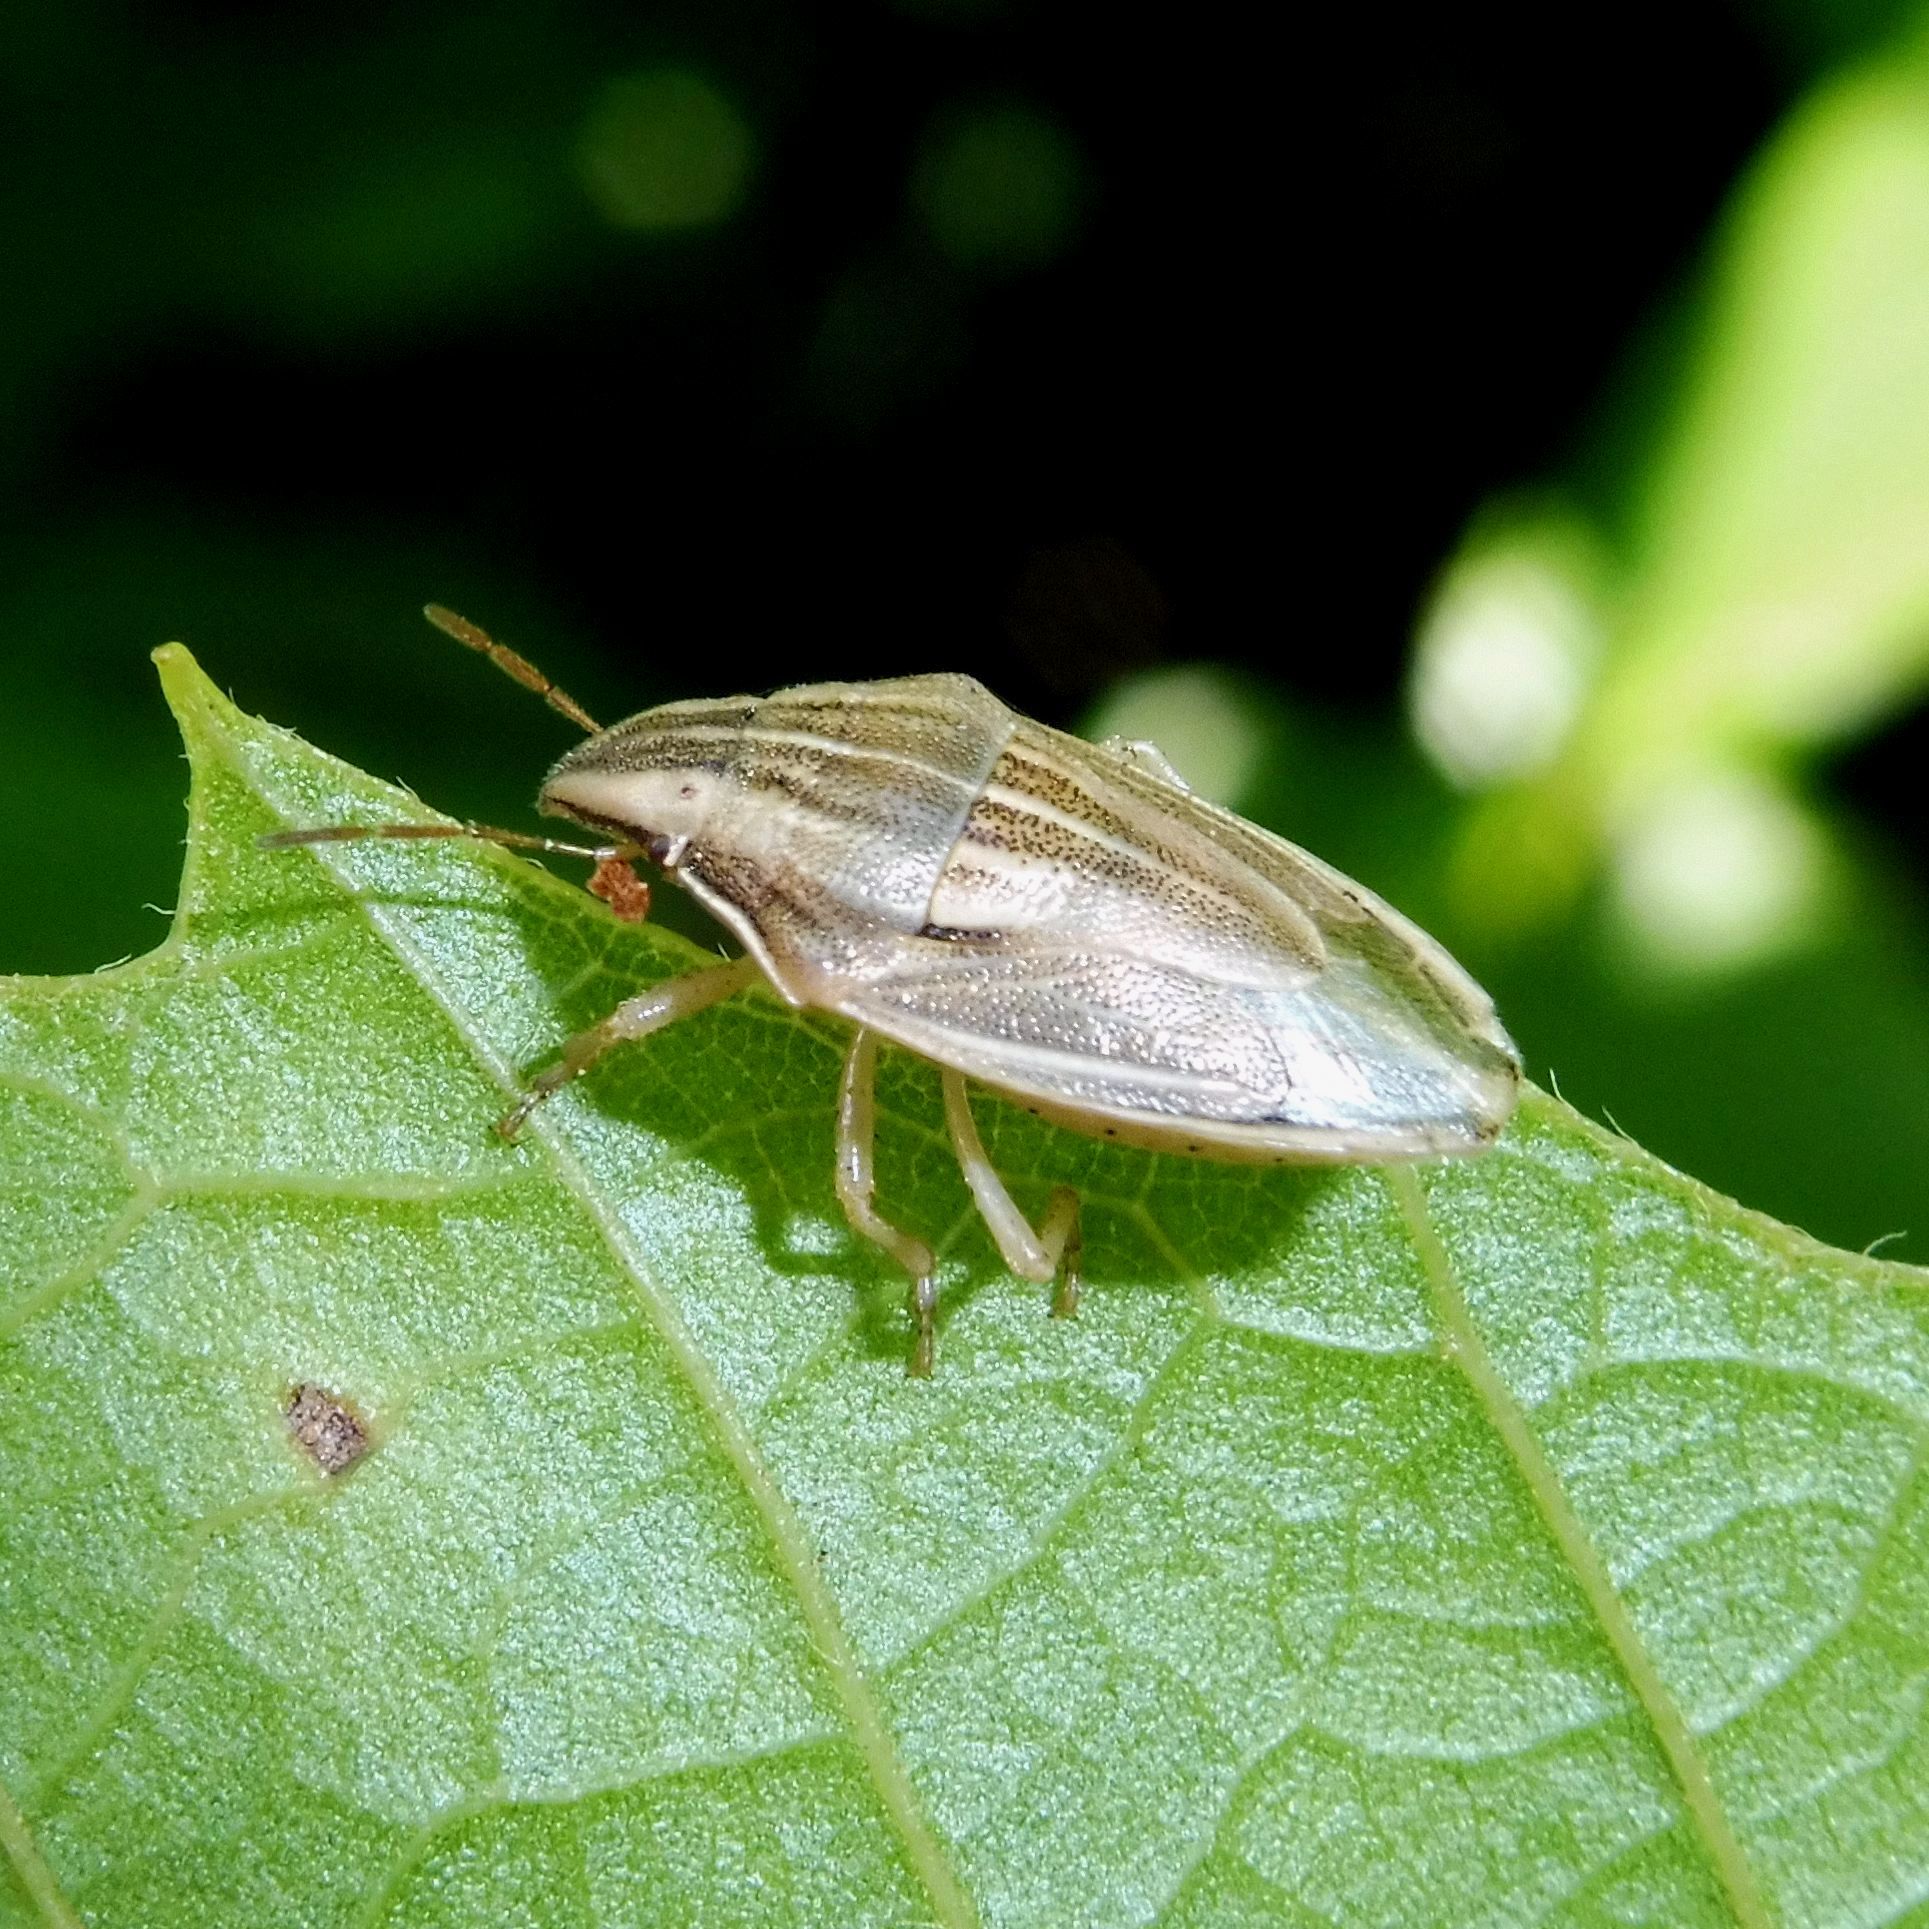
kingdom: Animalia
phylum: Arthropoda
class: Insecta
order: Hemiptera
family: Pentatomidae
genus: Aelia
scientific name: Aelia acuminata
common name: Bishop's mitre
